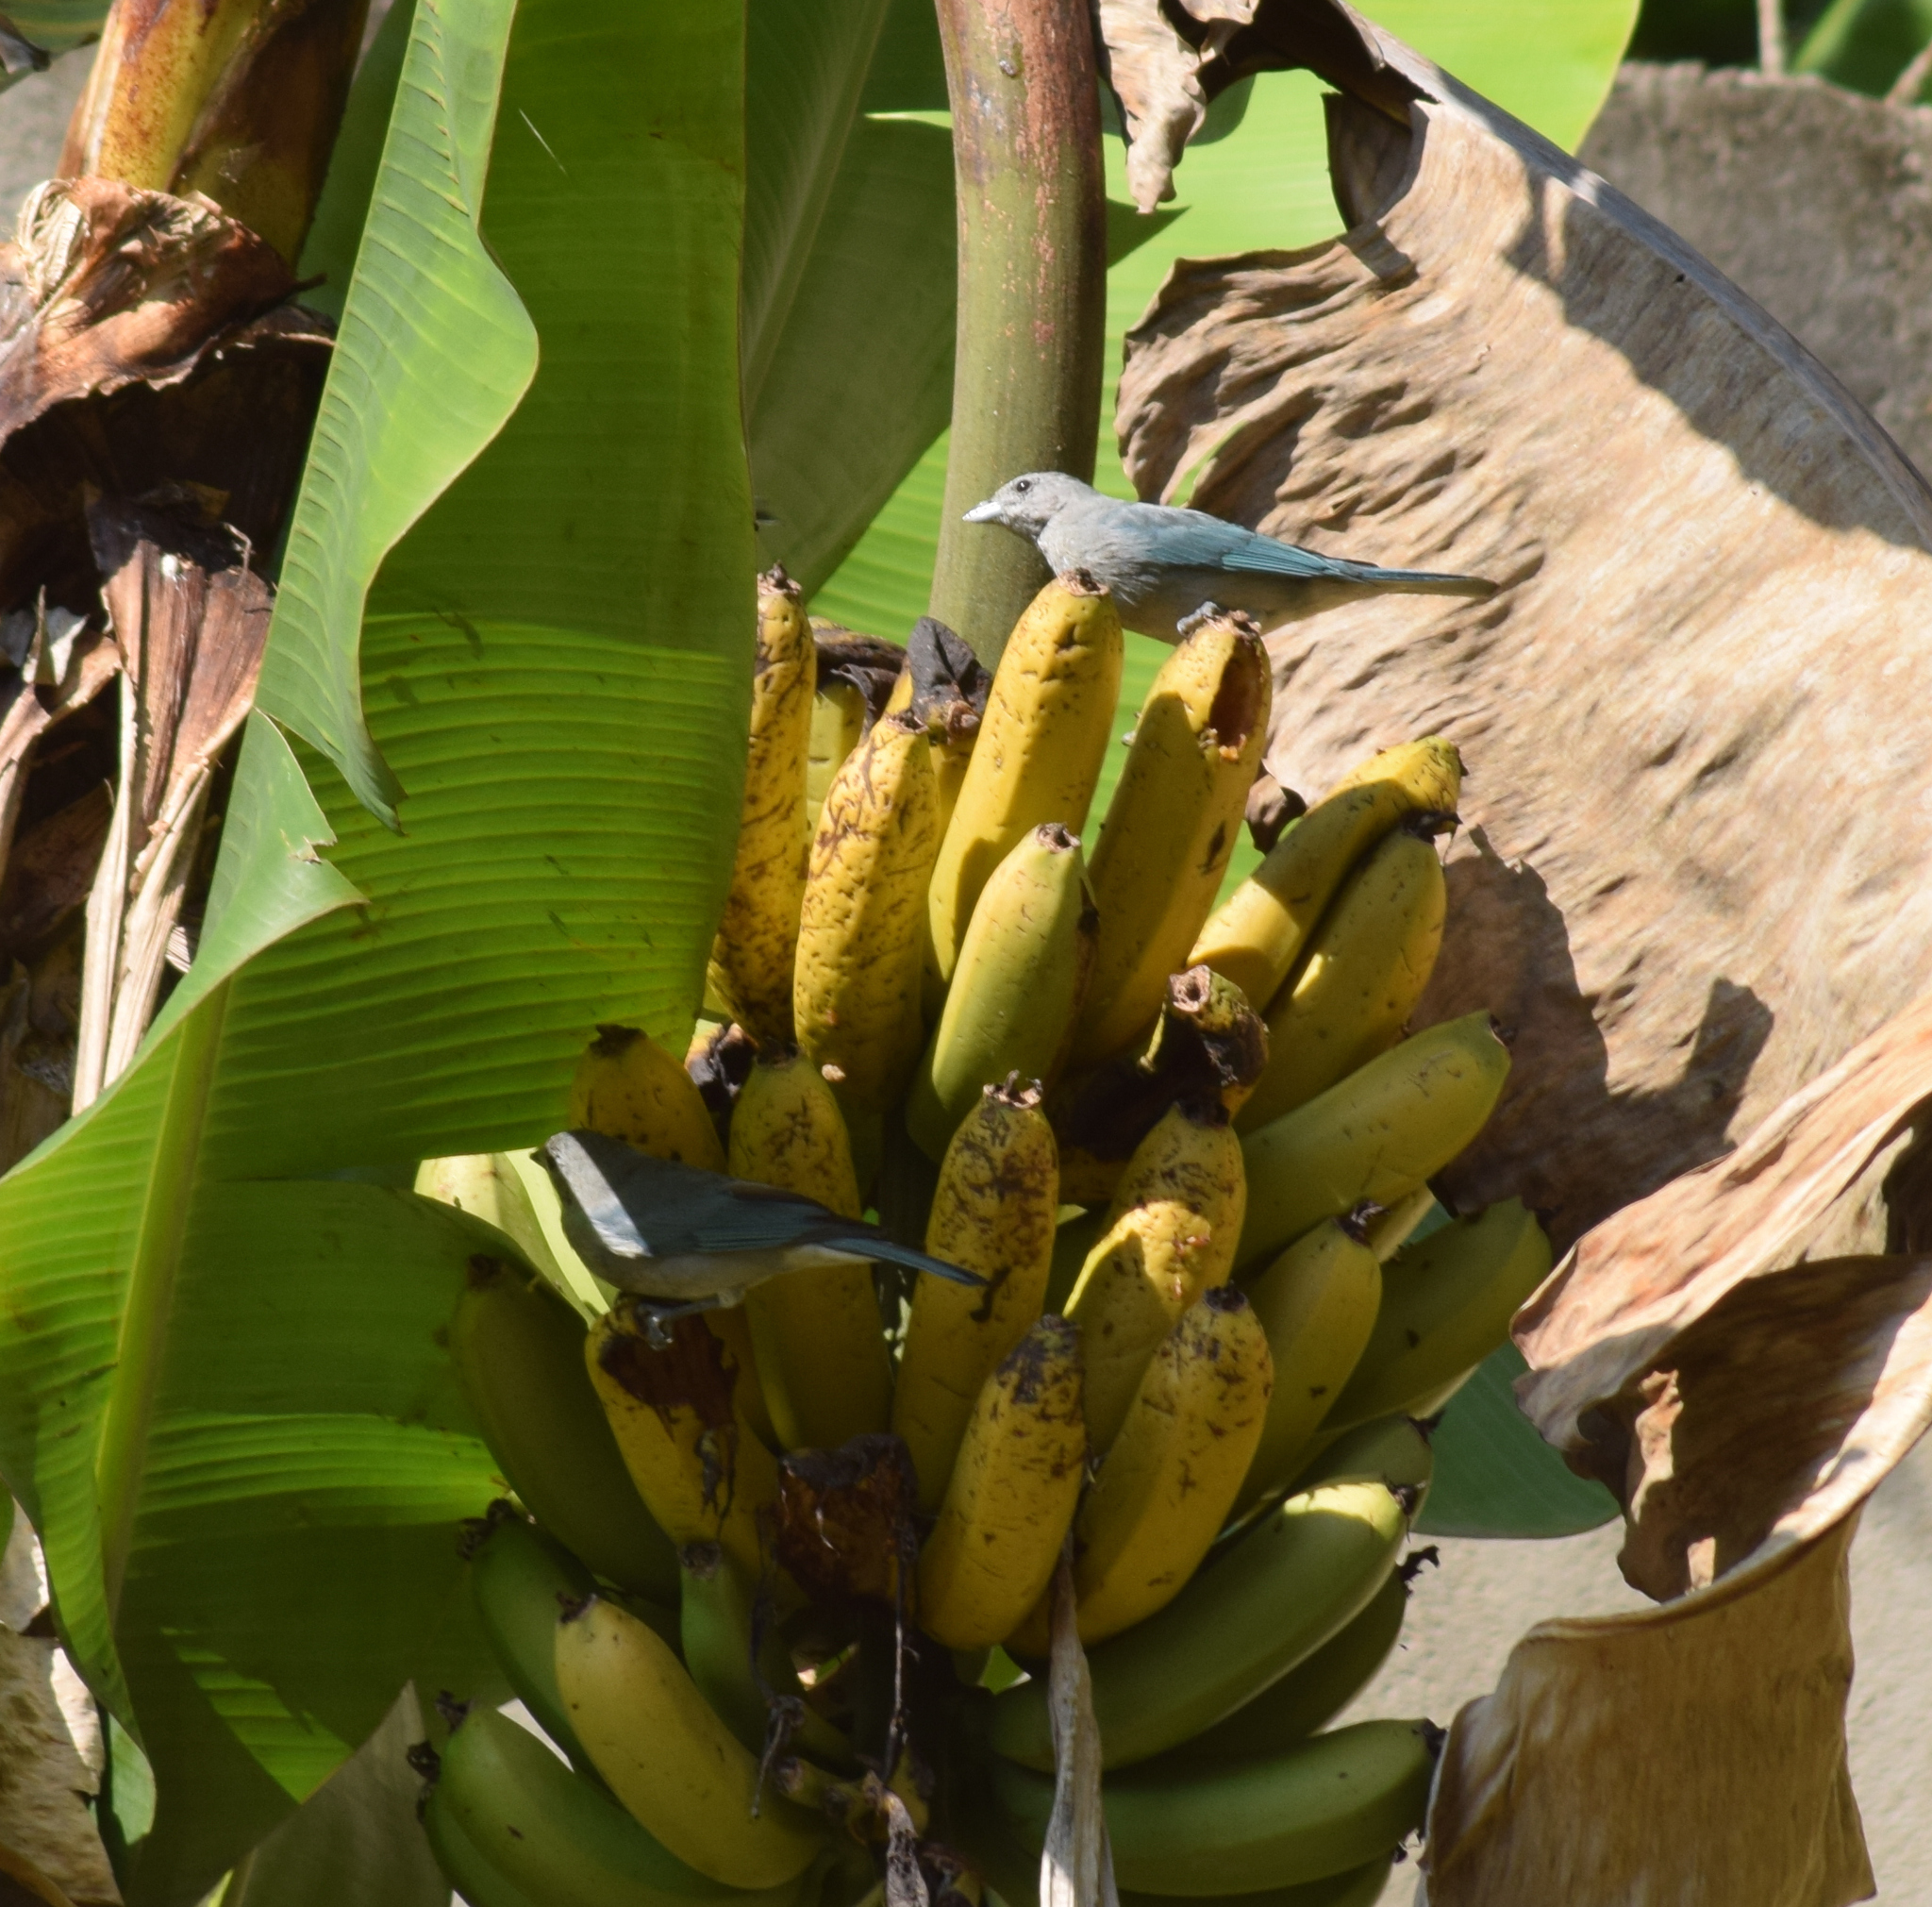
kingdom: Animalia
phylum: Chordata
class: Aves
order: Passeriformes
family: Thraupidae
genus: Thraupis
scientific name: Thraupis sayaca
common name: Sayaca tanager
